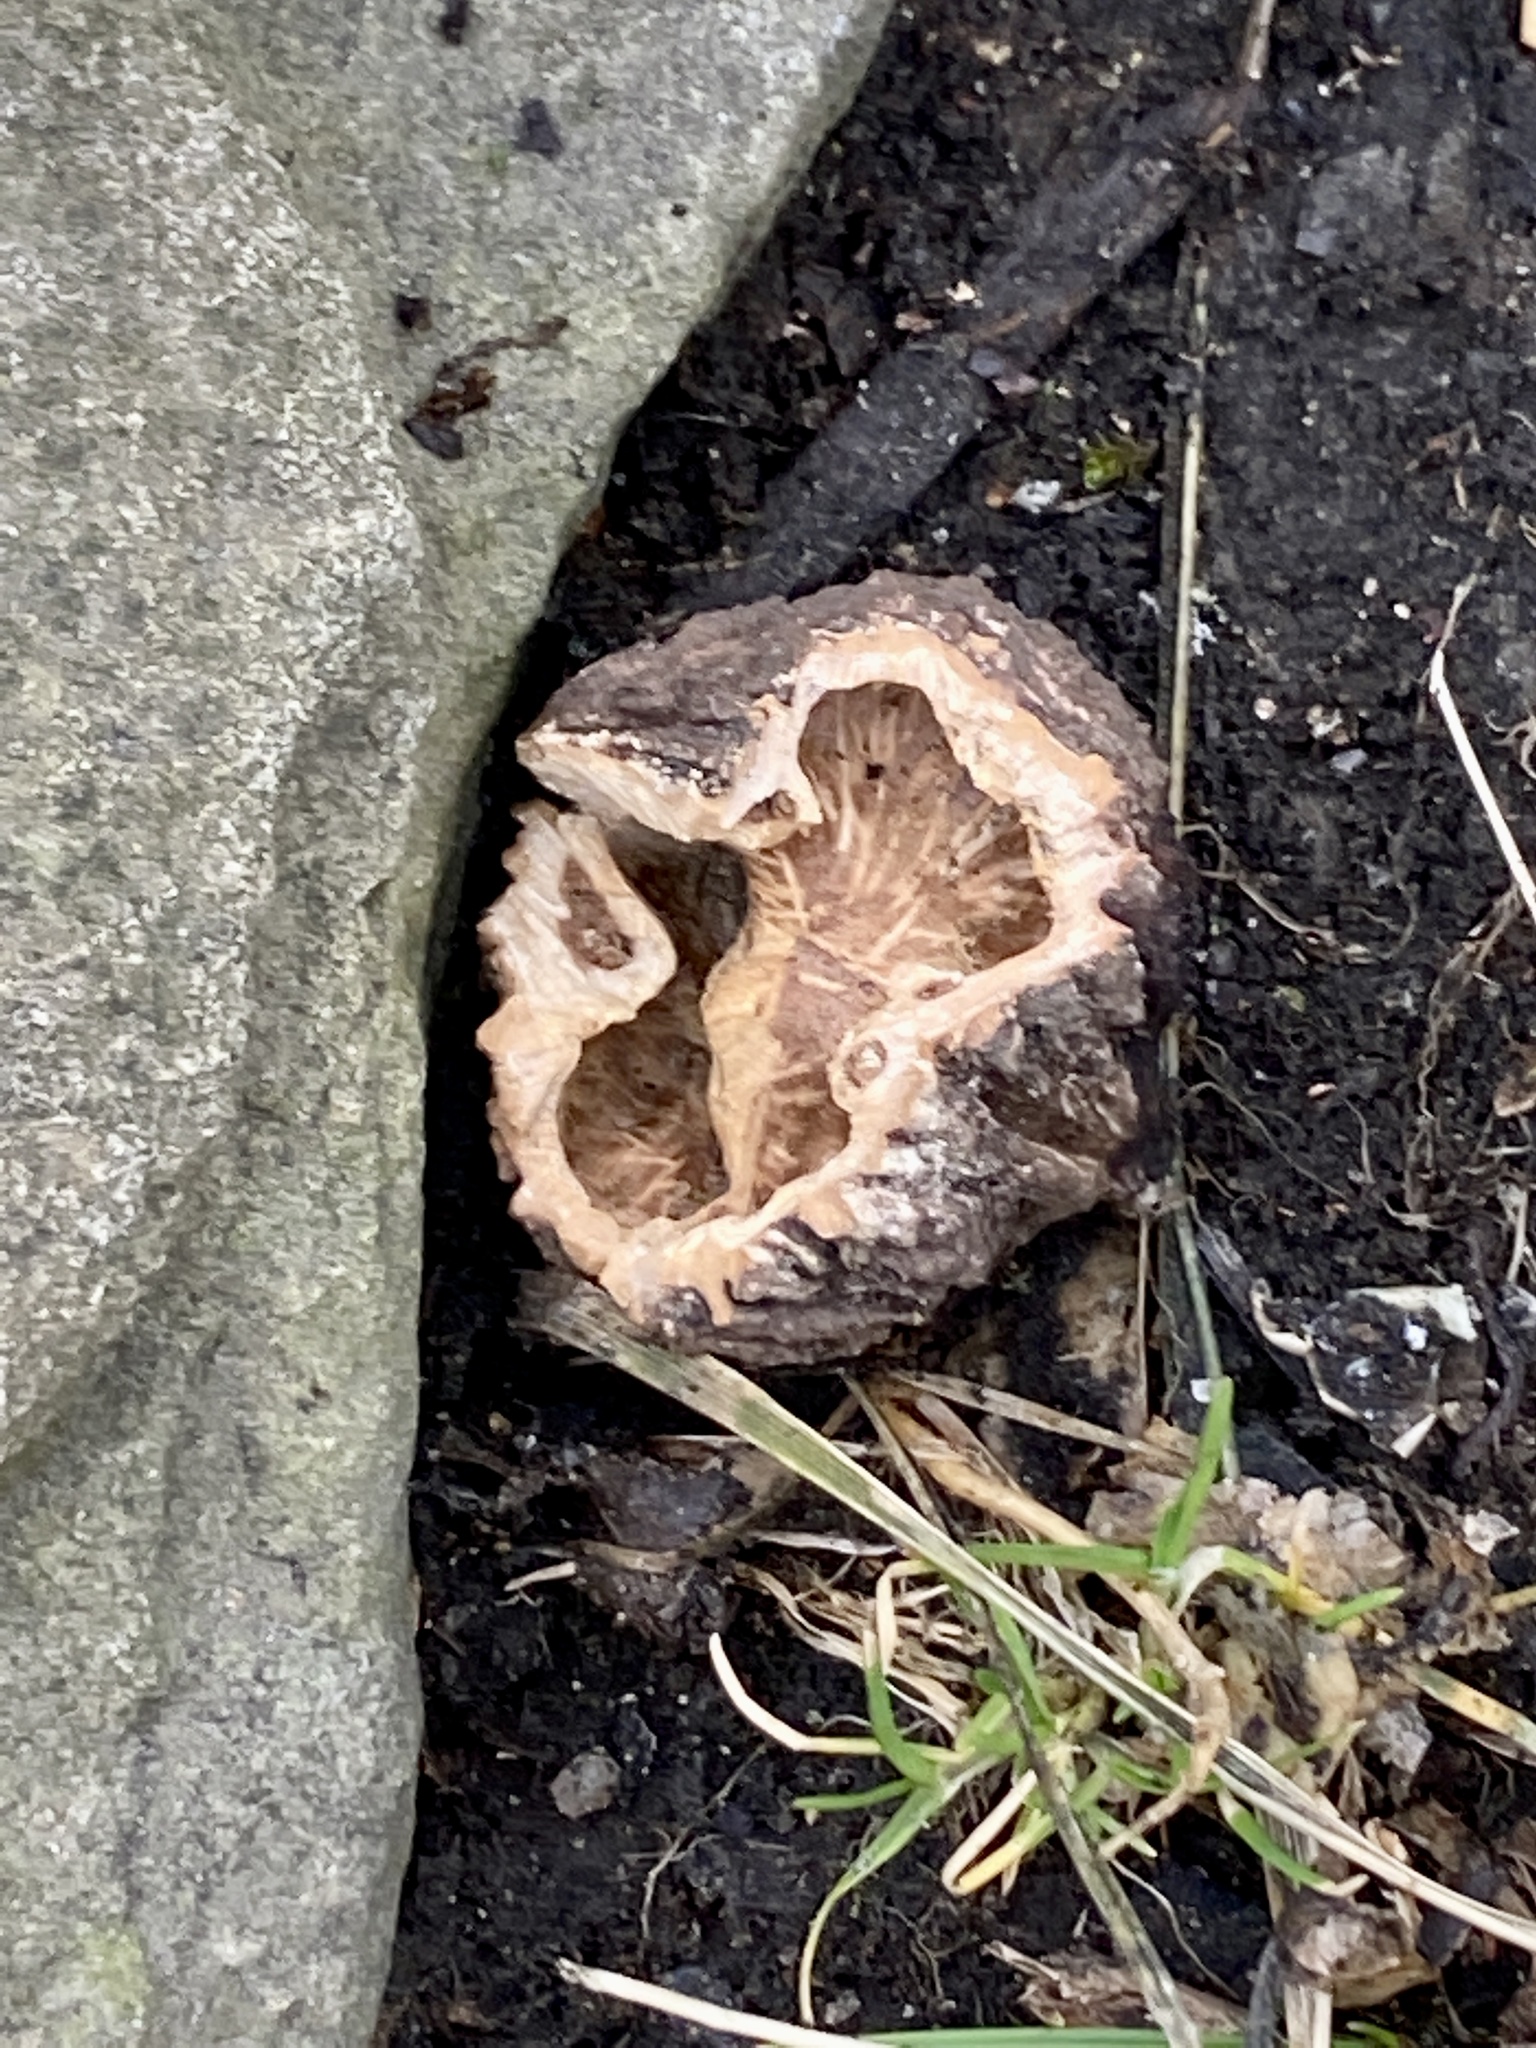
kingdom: Plantae
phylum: Tracheophyta
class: Magnoliopsida
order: Fagales
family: Juglandaceae
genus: Juglans
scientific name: Juglans nigra
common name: Black walnut
